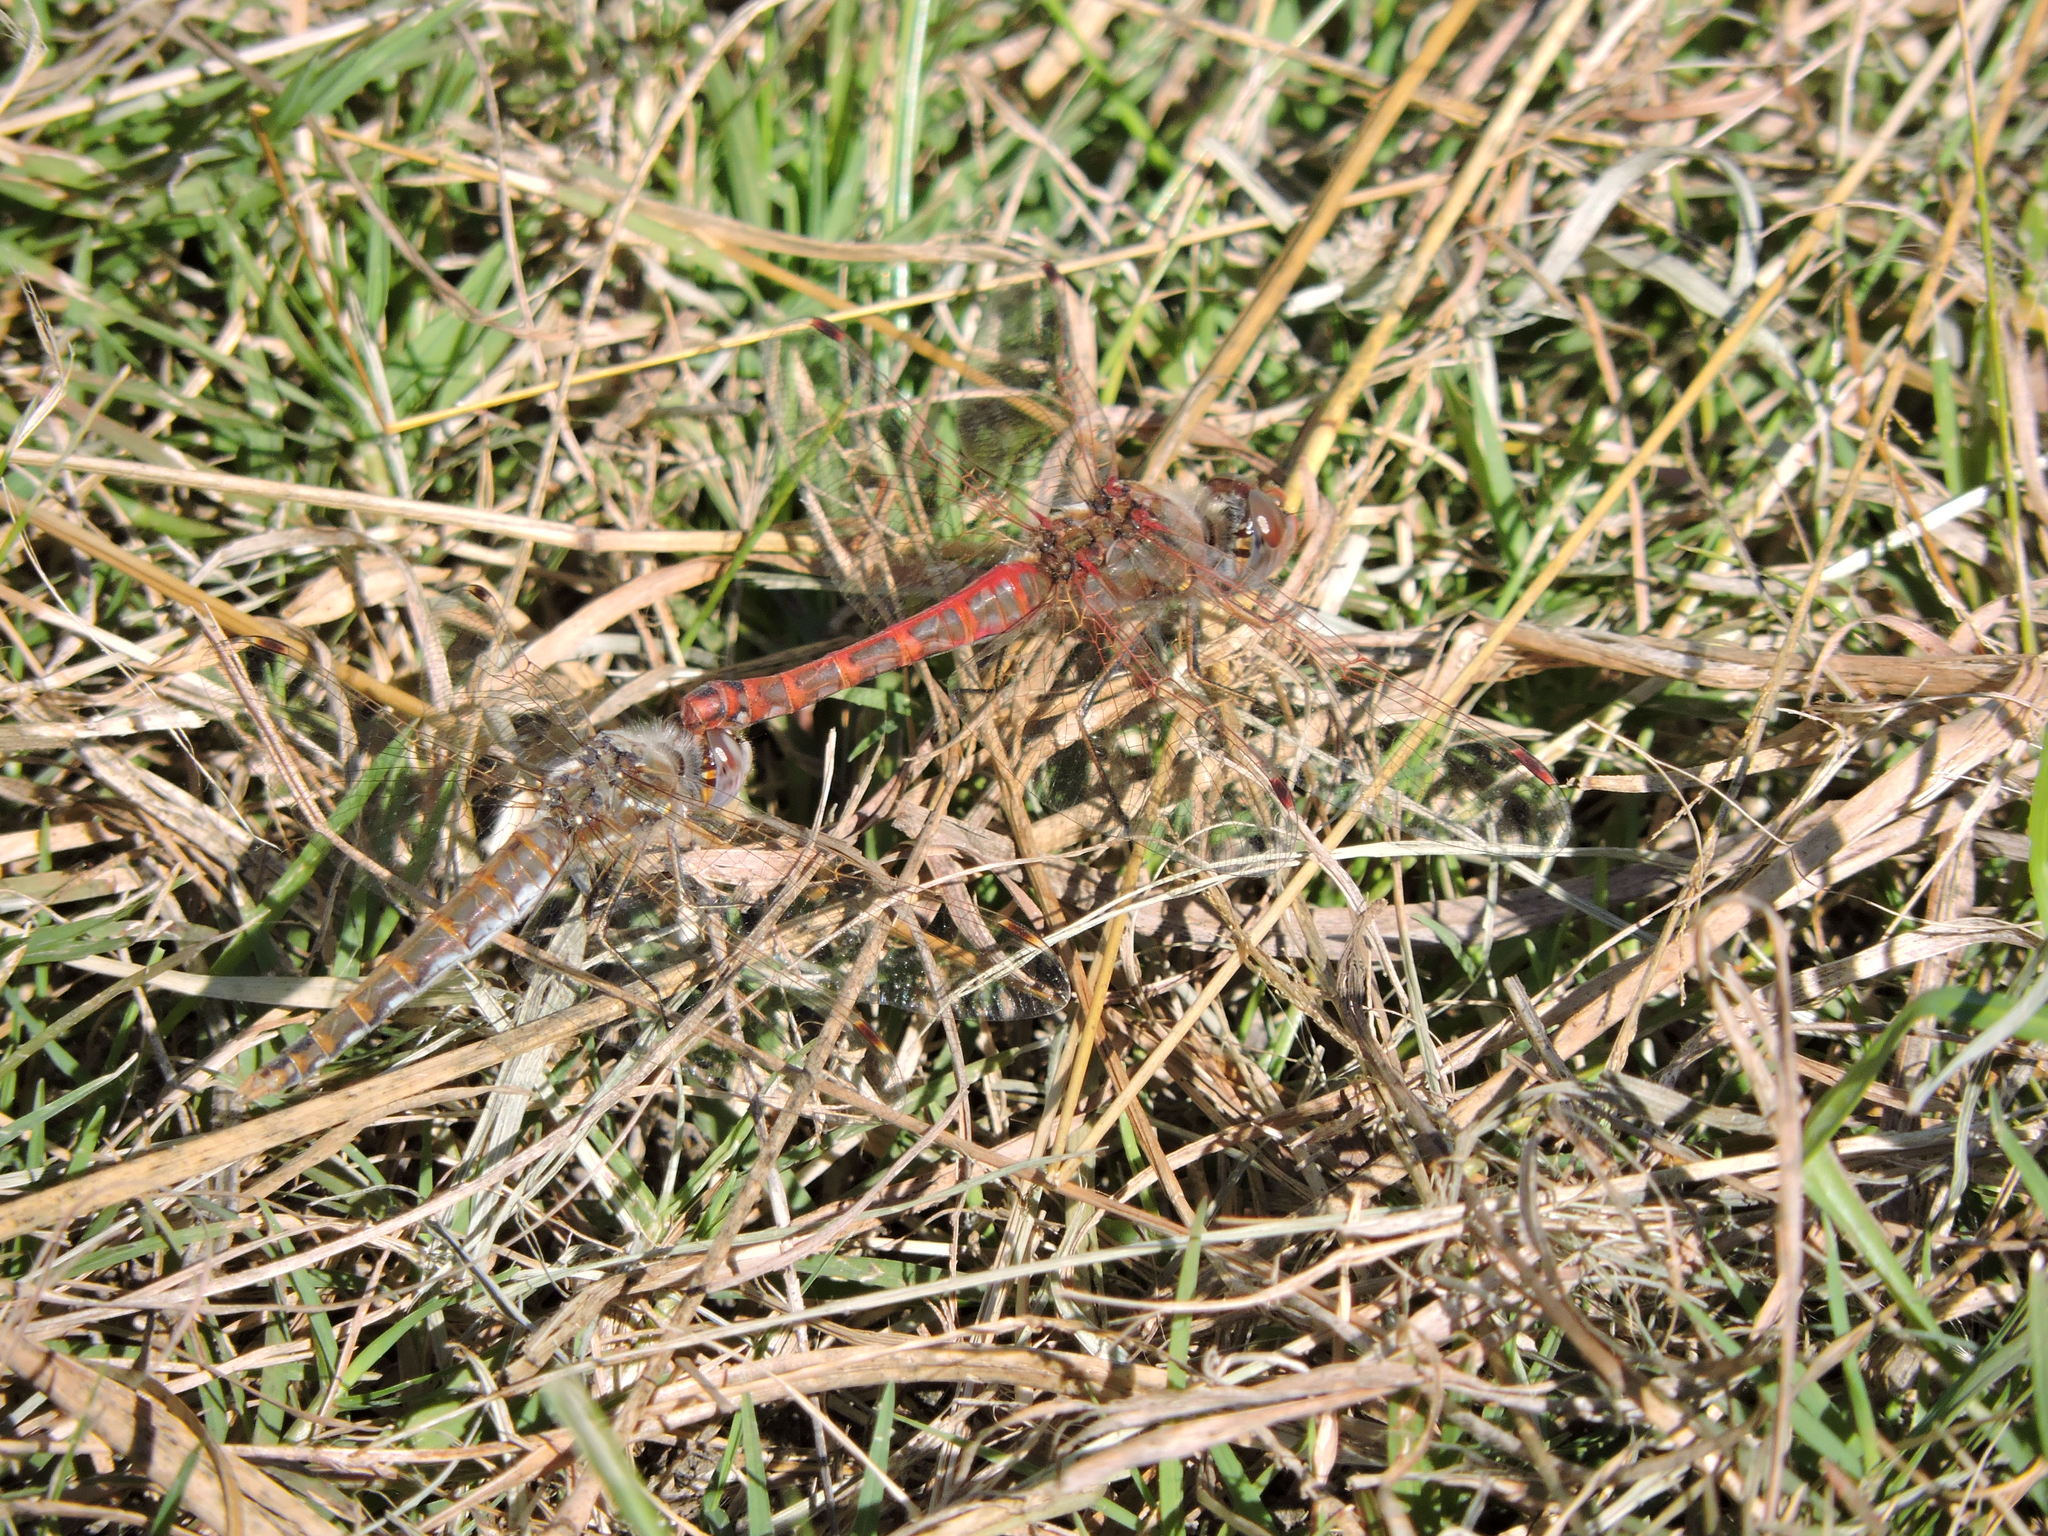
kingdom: Animalia
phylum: Arthropoda
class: Insecta
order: Odonata
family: Libellulidae
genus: Sympetrum
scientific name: Sympetrum corruptum
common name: Variegated meadowhawk
